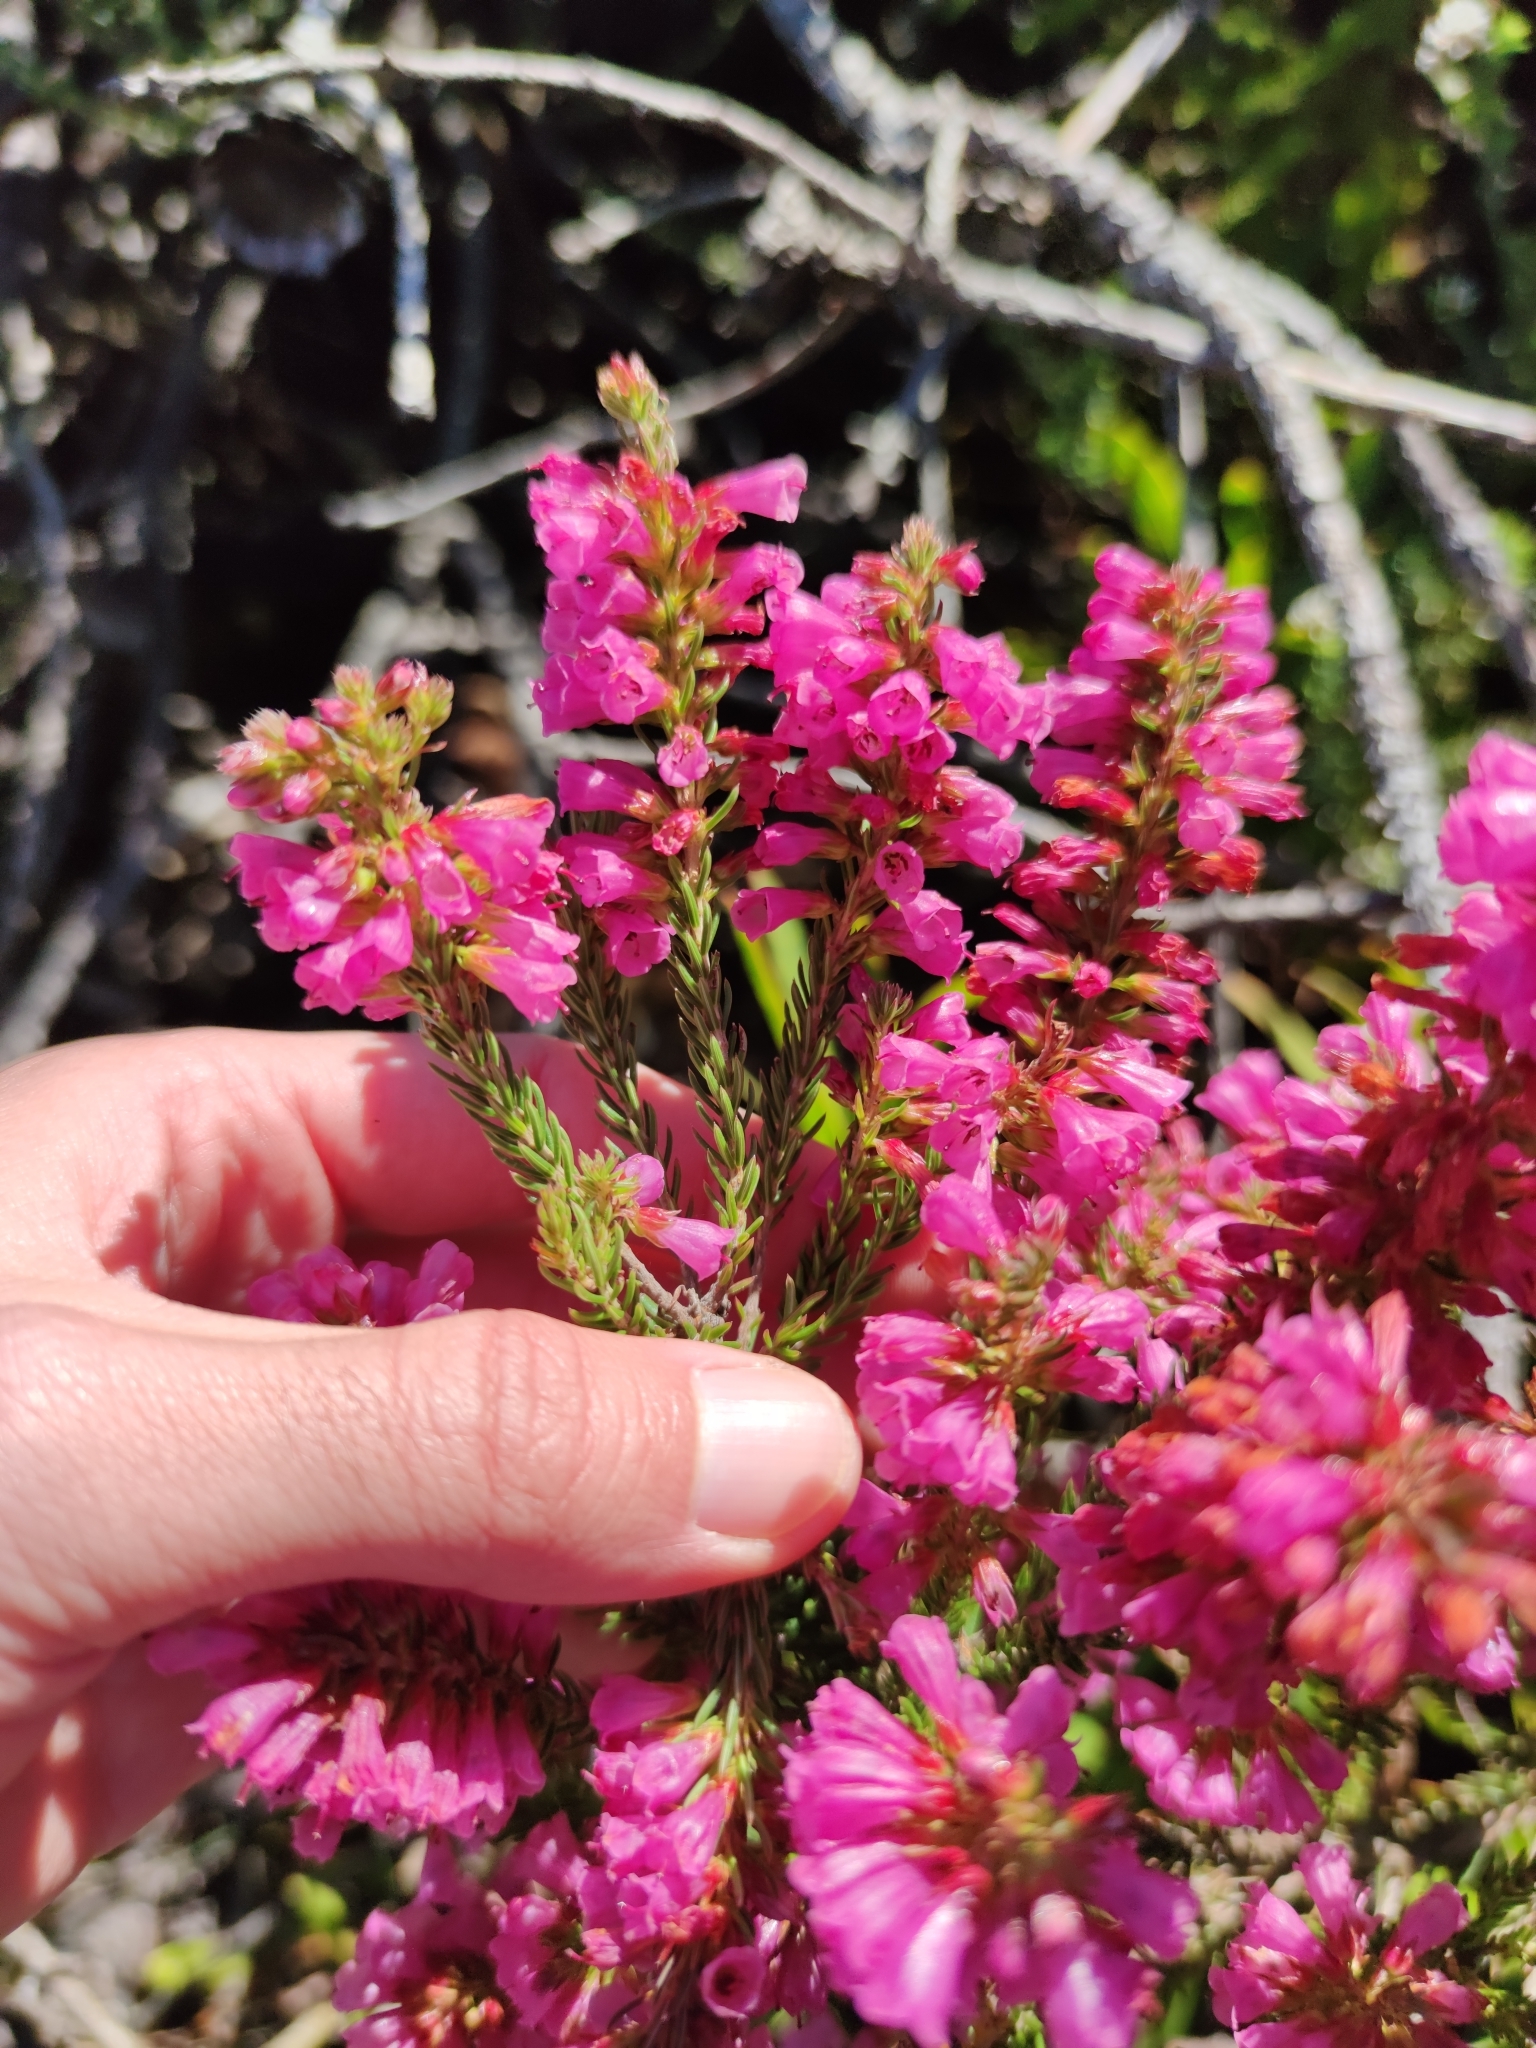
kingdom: Plantae
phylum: Tracheophyta
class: Magnoliopsida
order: Ericales
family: Ericaceae
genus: Erica
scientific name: Erica abietina
